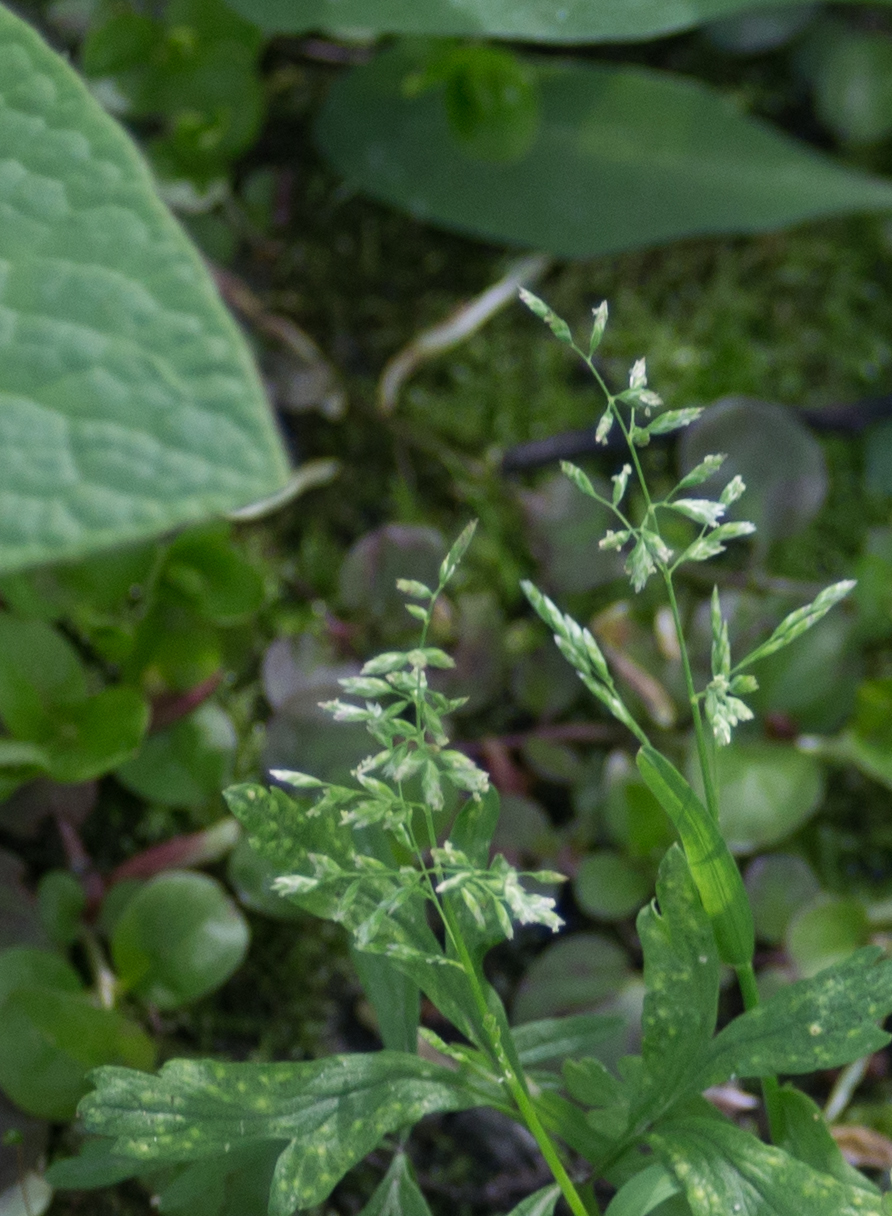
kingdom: Plantae
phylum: Tracheophyta
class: Liliopsida
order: Poales
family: Poaceae
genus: Poa
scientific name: Poa annua
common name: Annual bluegrass
